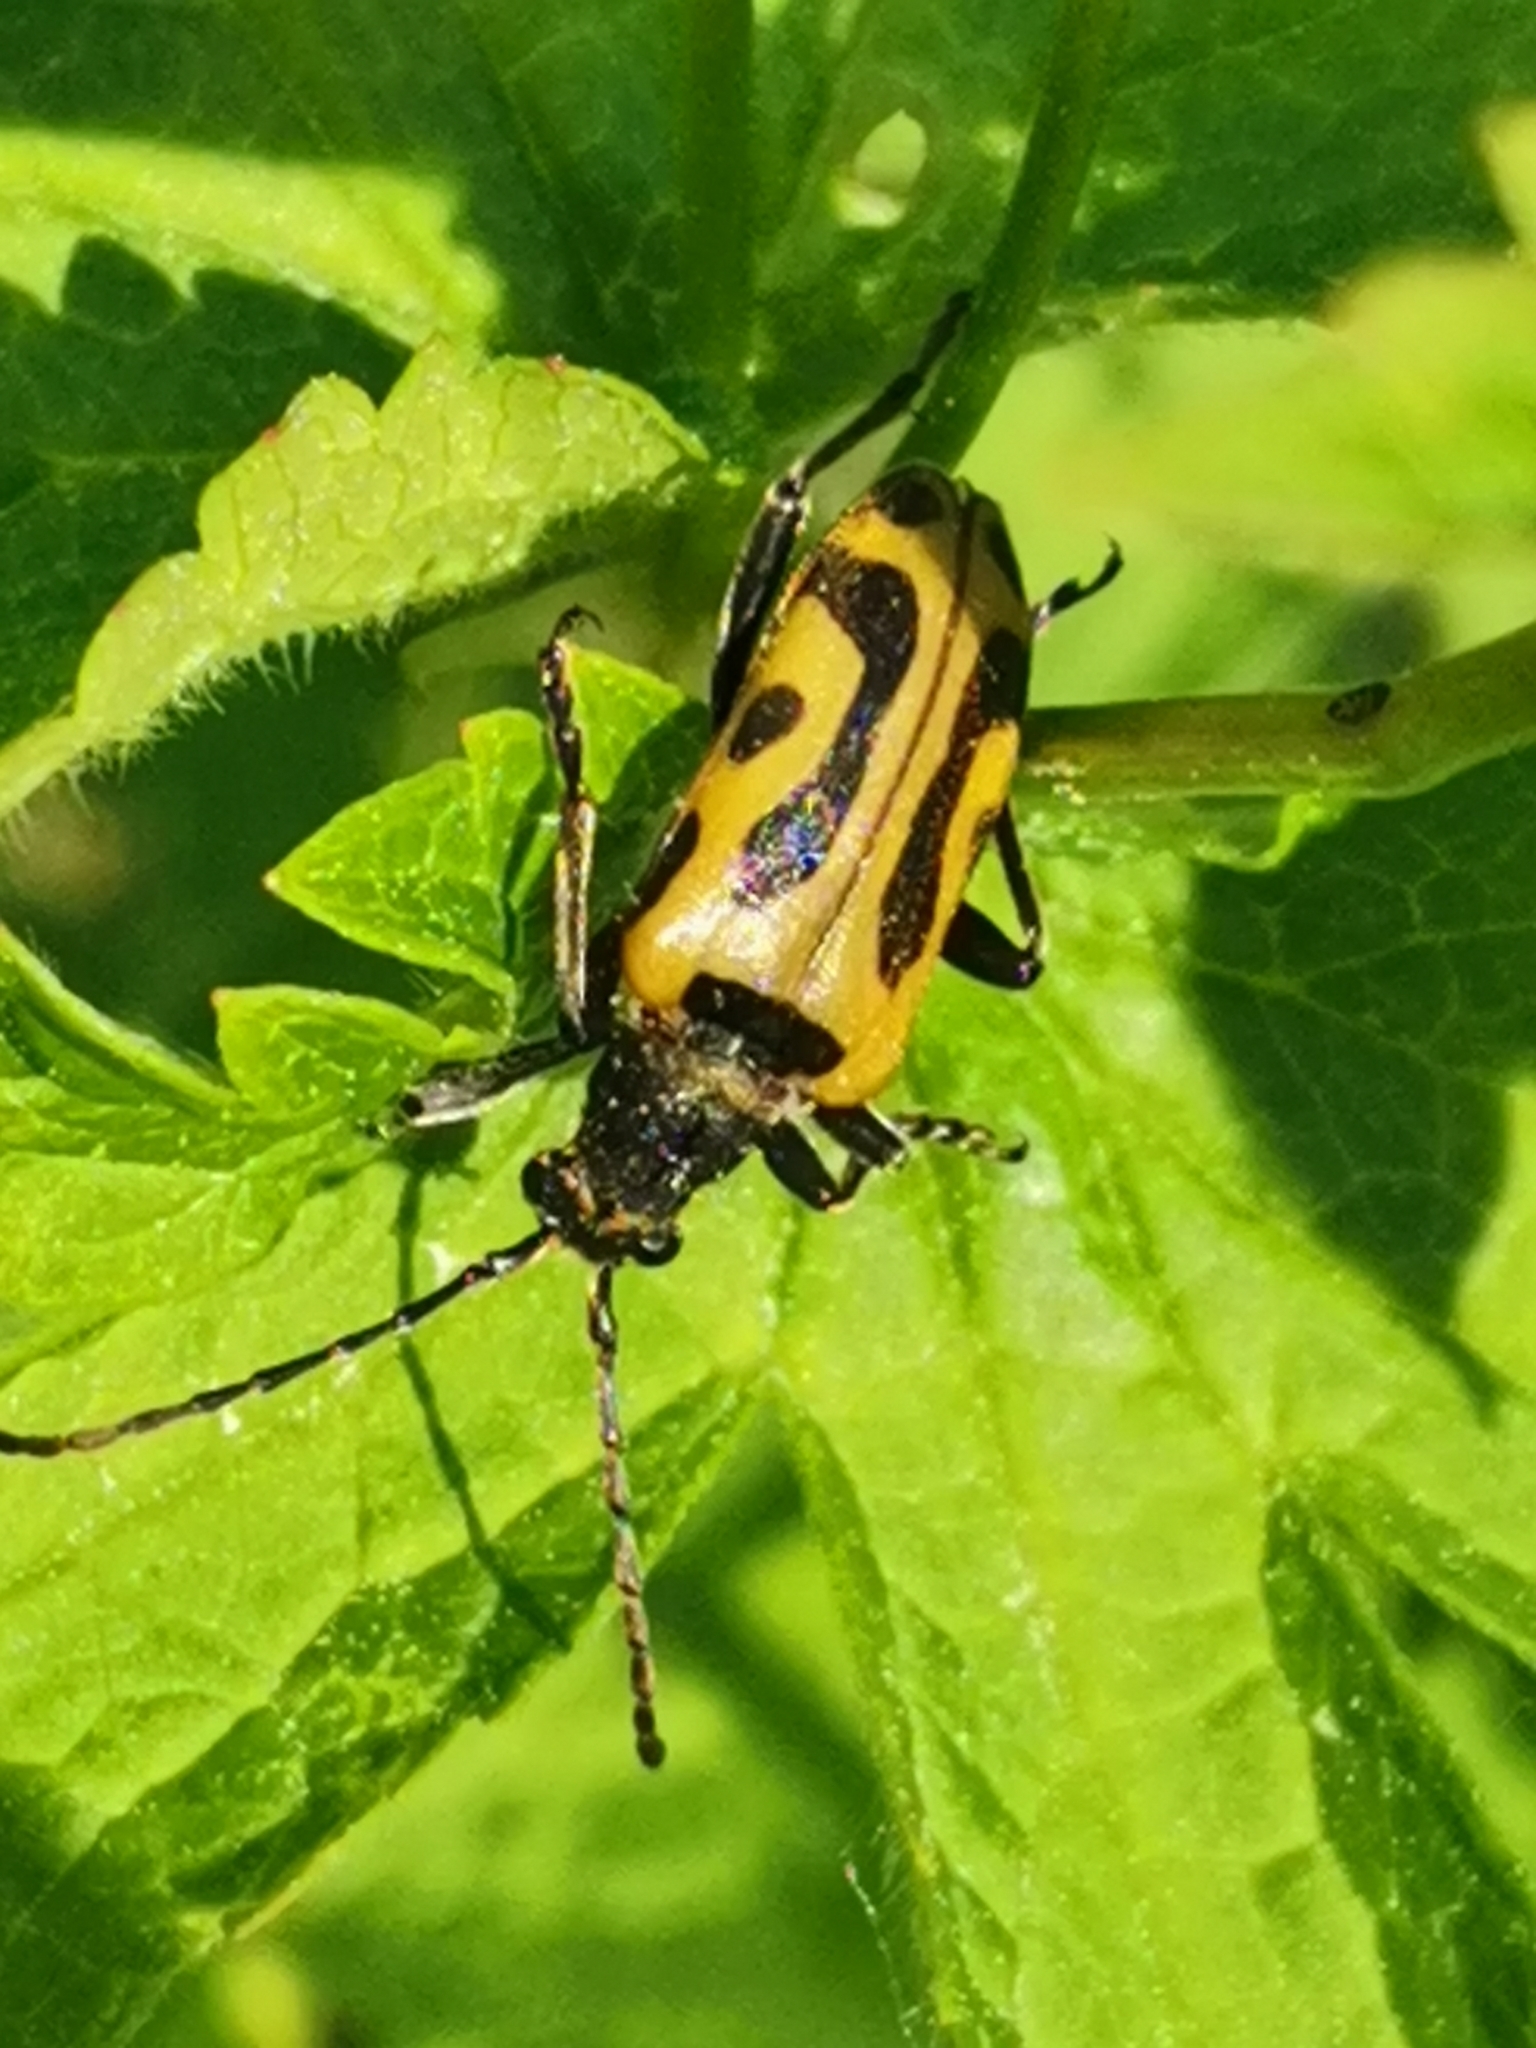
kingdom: Animalia
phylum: Arthropoda
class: Insecta
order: Coleoptera
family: Cerambycidae
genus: Brachyta
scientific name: Brachyta interrogationis
